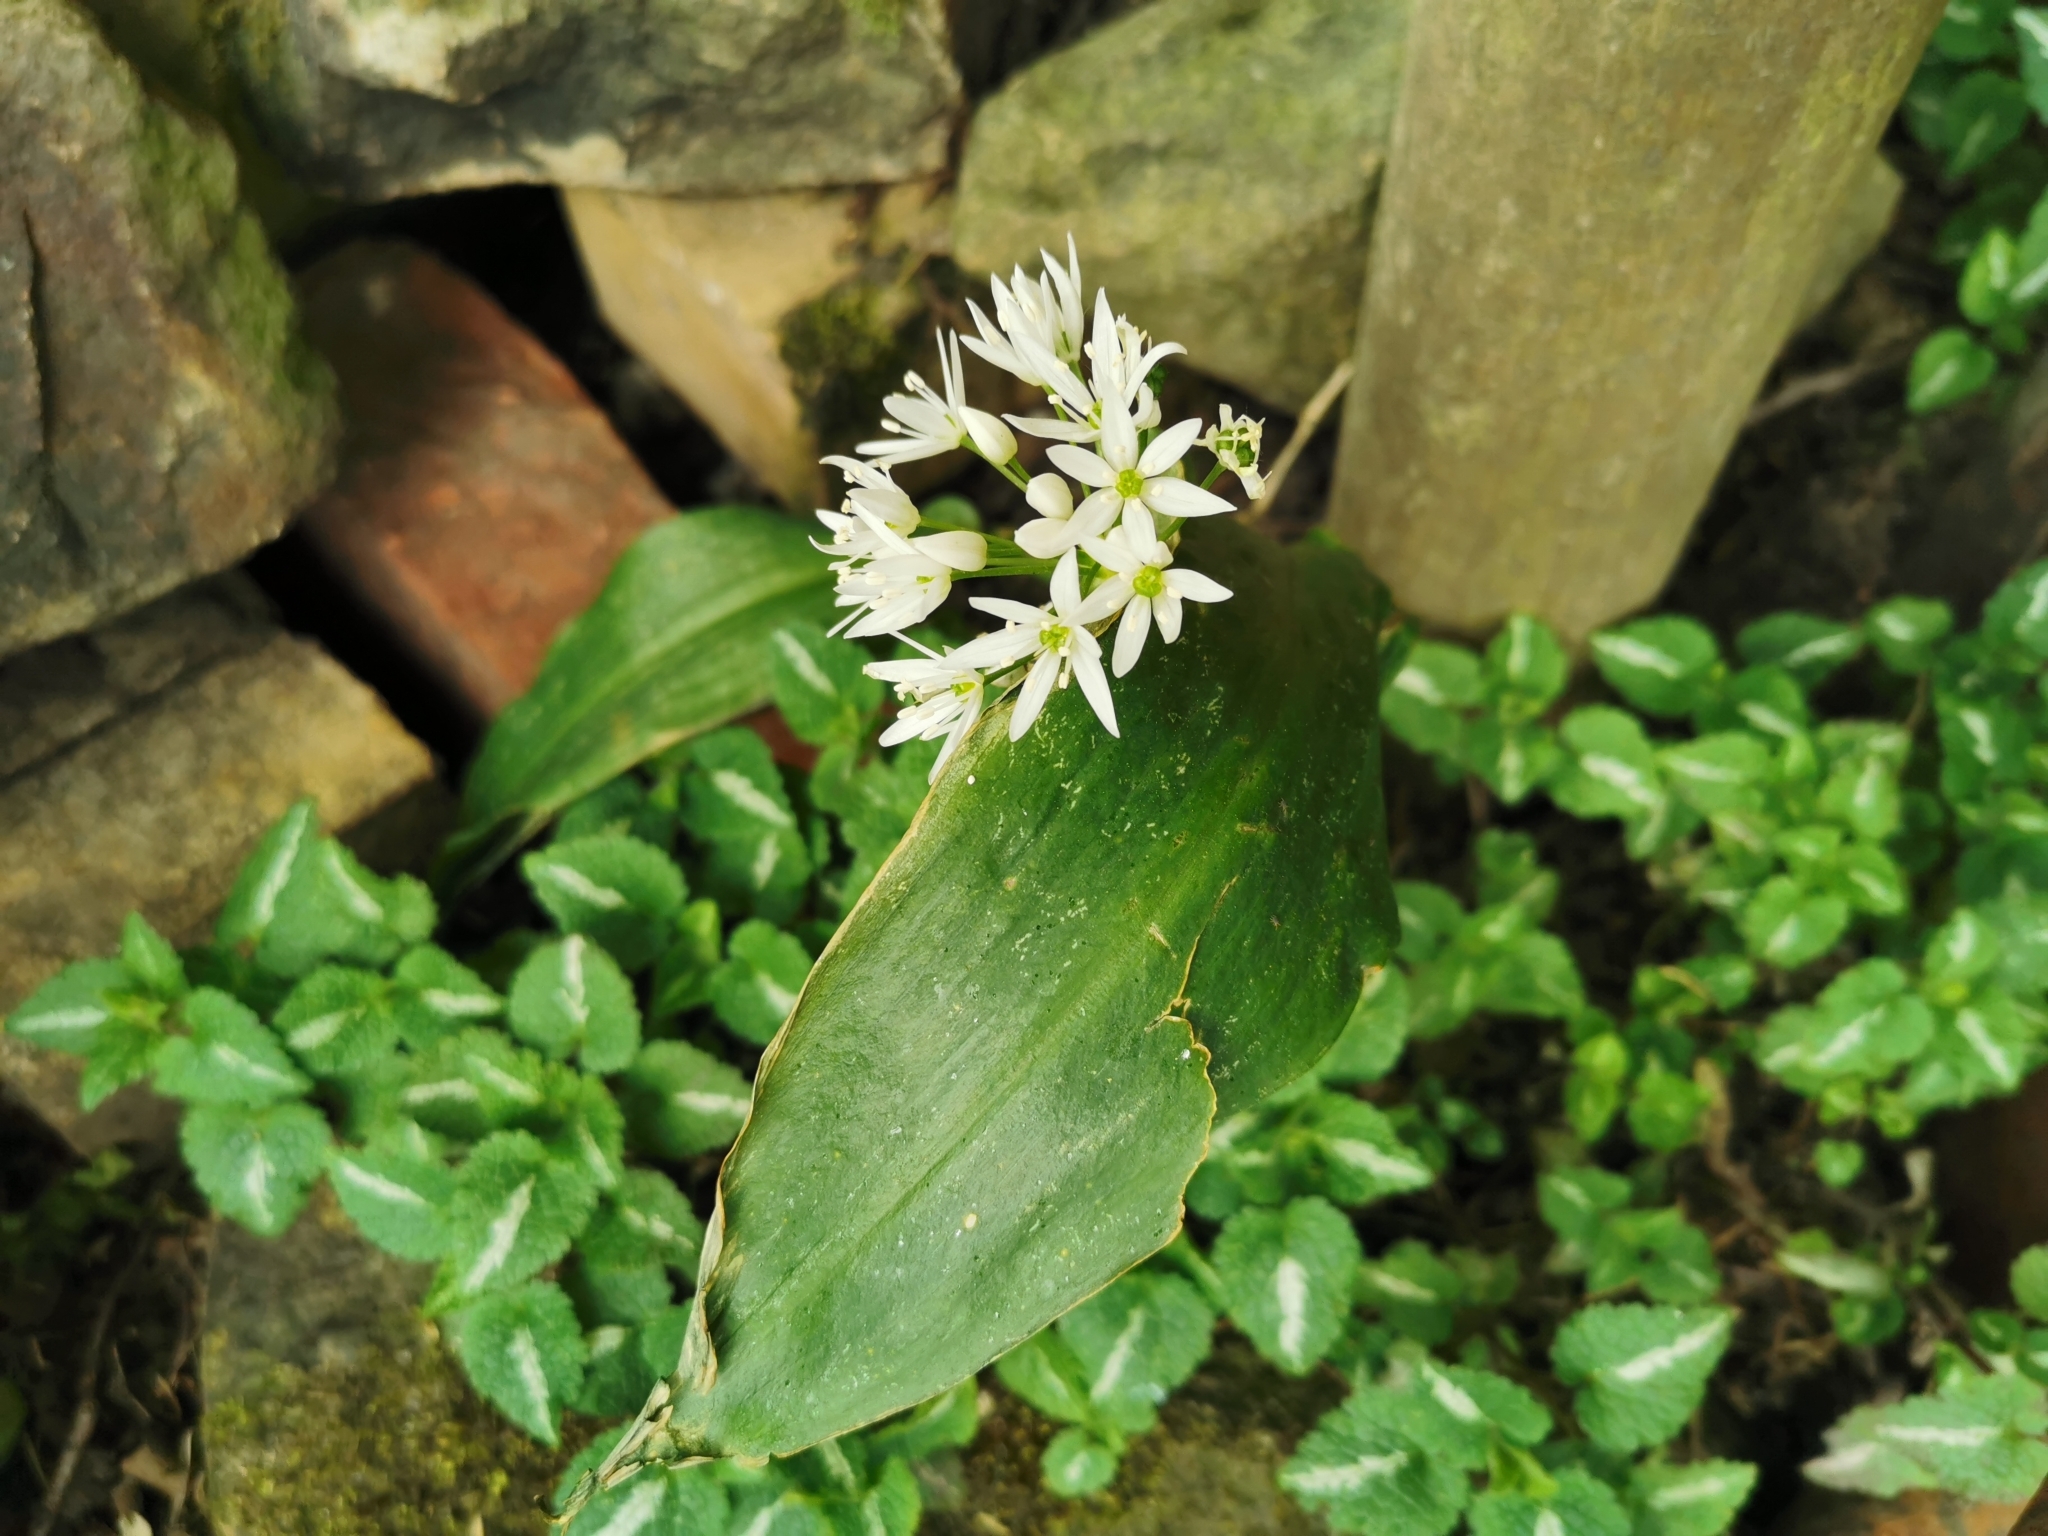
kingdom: Plantae
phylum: Tracheophyta
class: Liliopsida
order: Asparagales
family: Amaryllidaceae
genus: Allium
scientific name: Allium ursinum
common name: Ramsons
